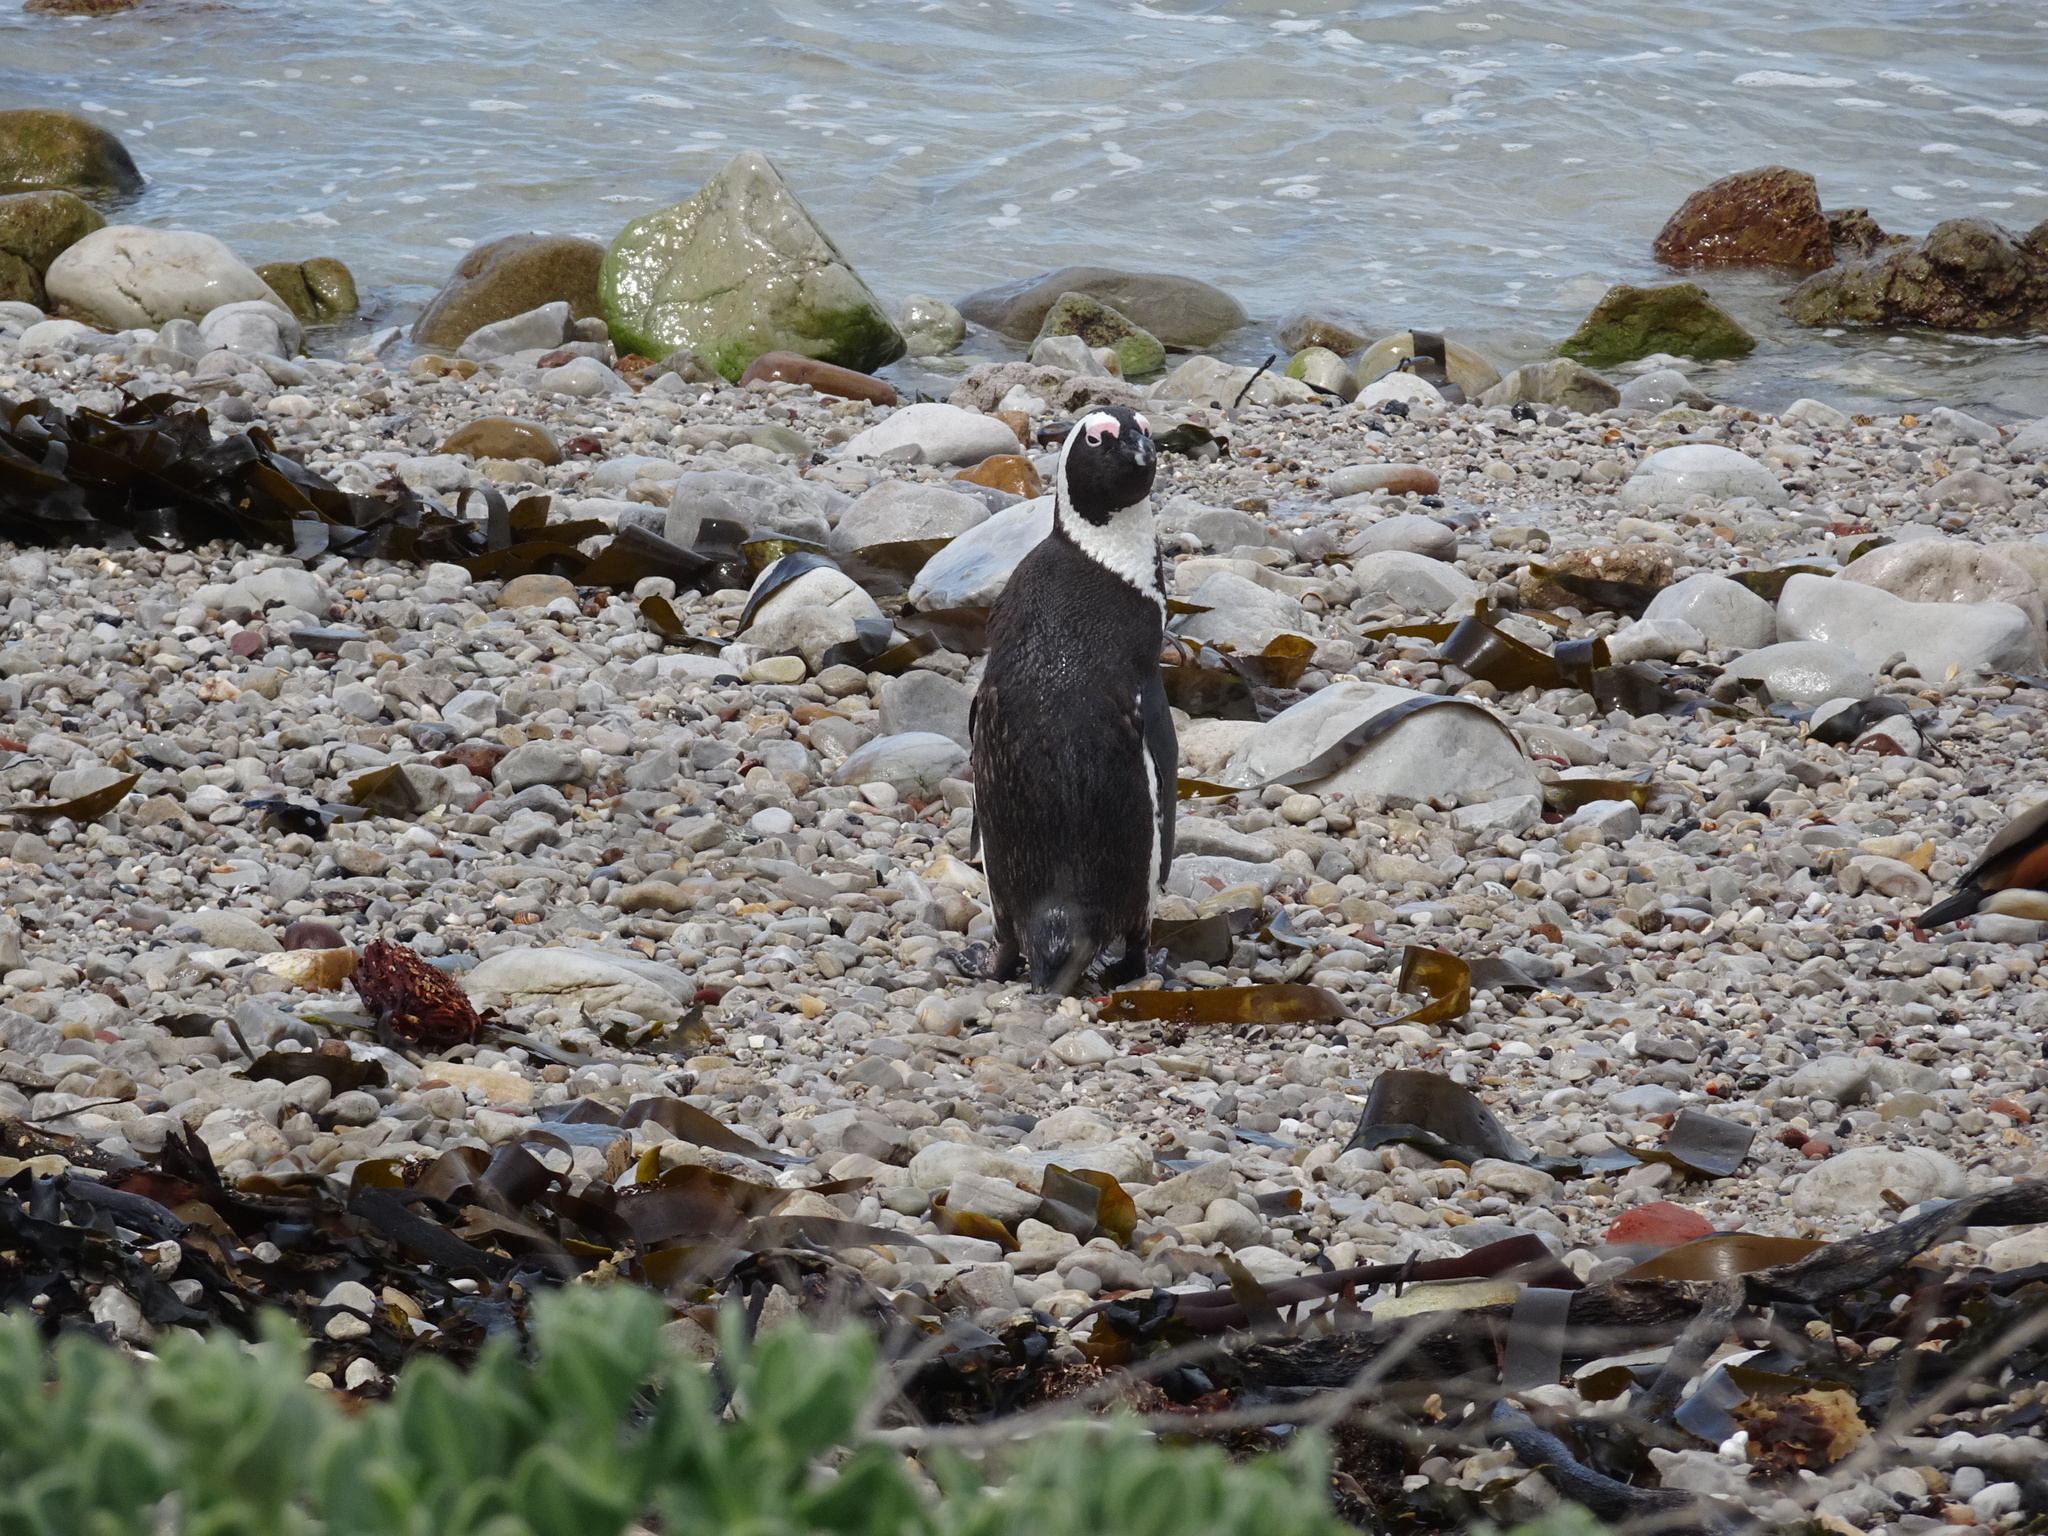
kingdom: Animalia
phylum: Chordata
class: Aves
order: Sphenisciformes
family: Spheniscidae
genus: Spheniscus
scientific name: Spheniscus demersus
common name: African penguin
